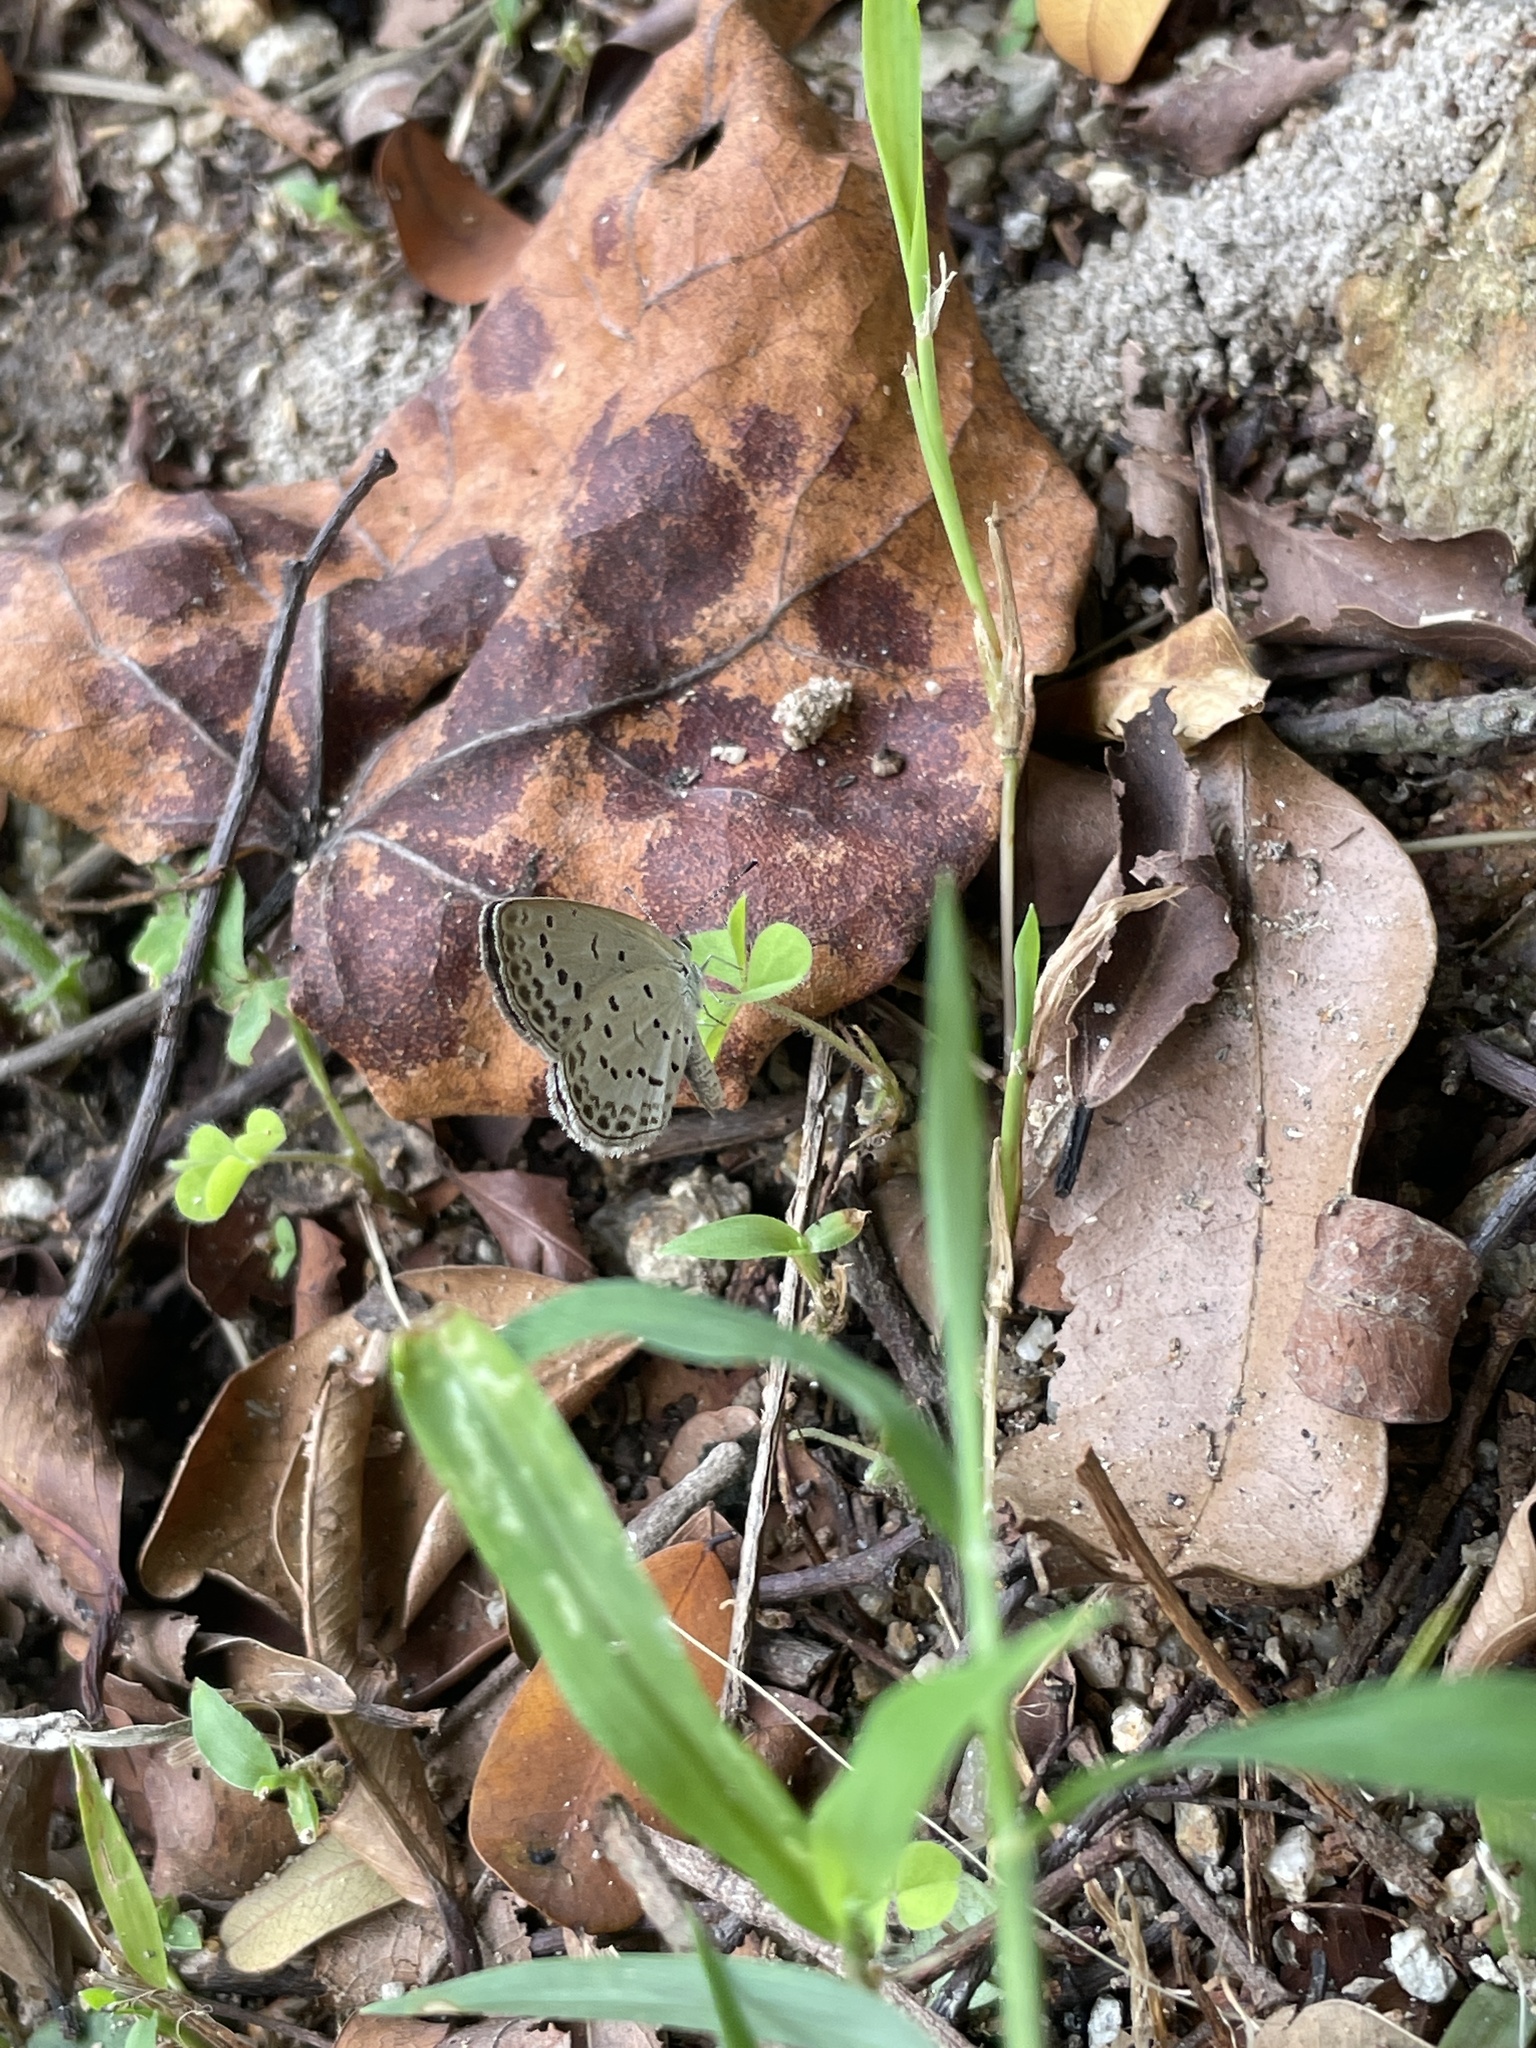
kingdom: Animalia
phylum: Arthropoda
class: Insecta
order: Lepidoptera
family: Lycaenidae
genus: Pseudozizeeria
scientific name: Pseudozizeeria maha
